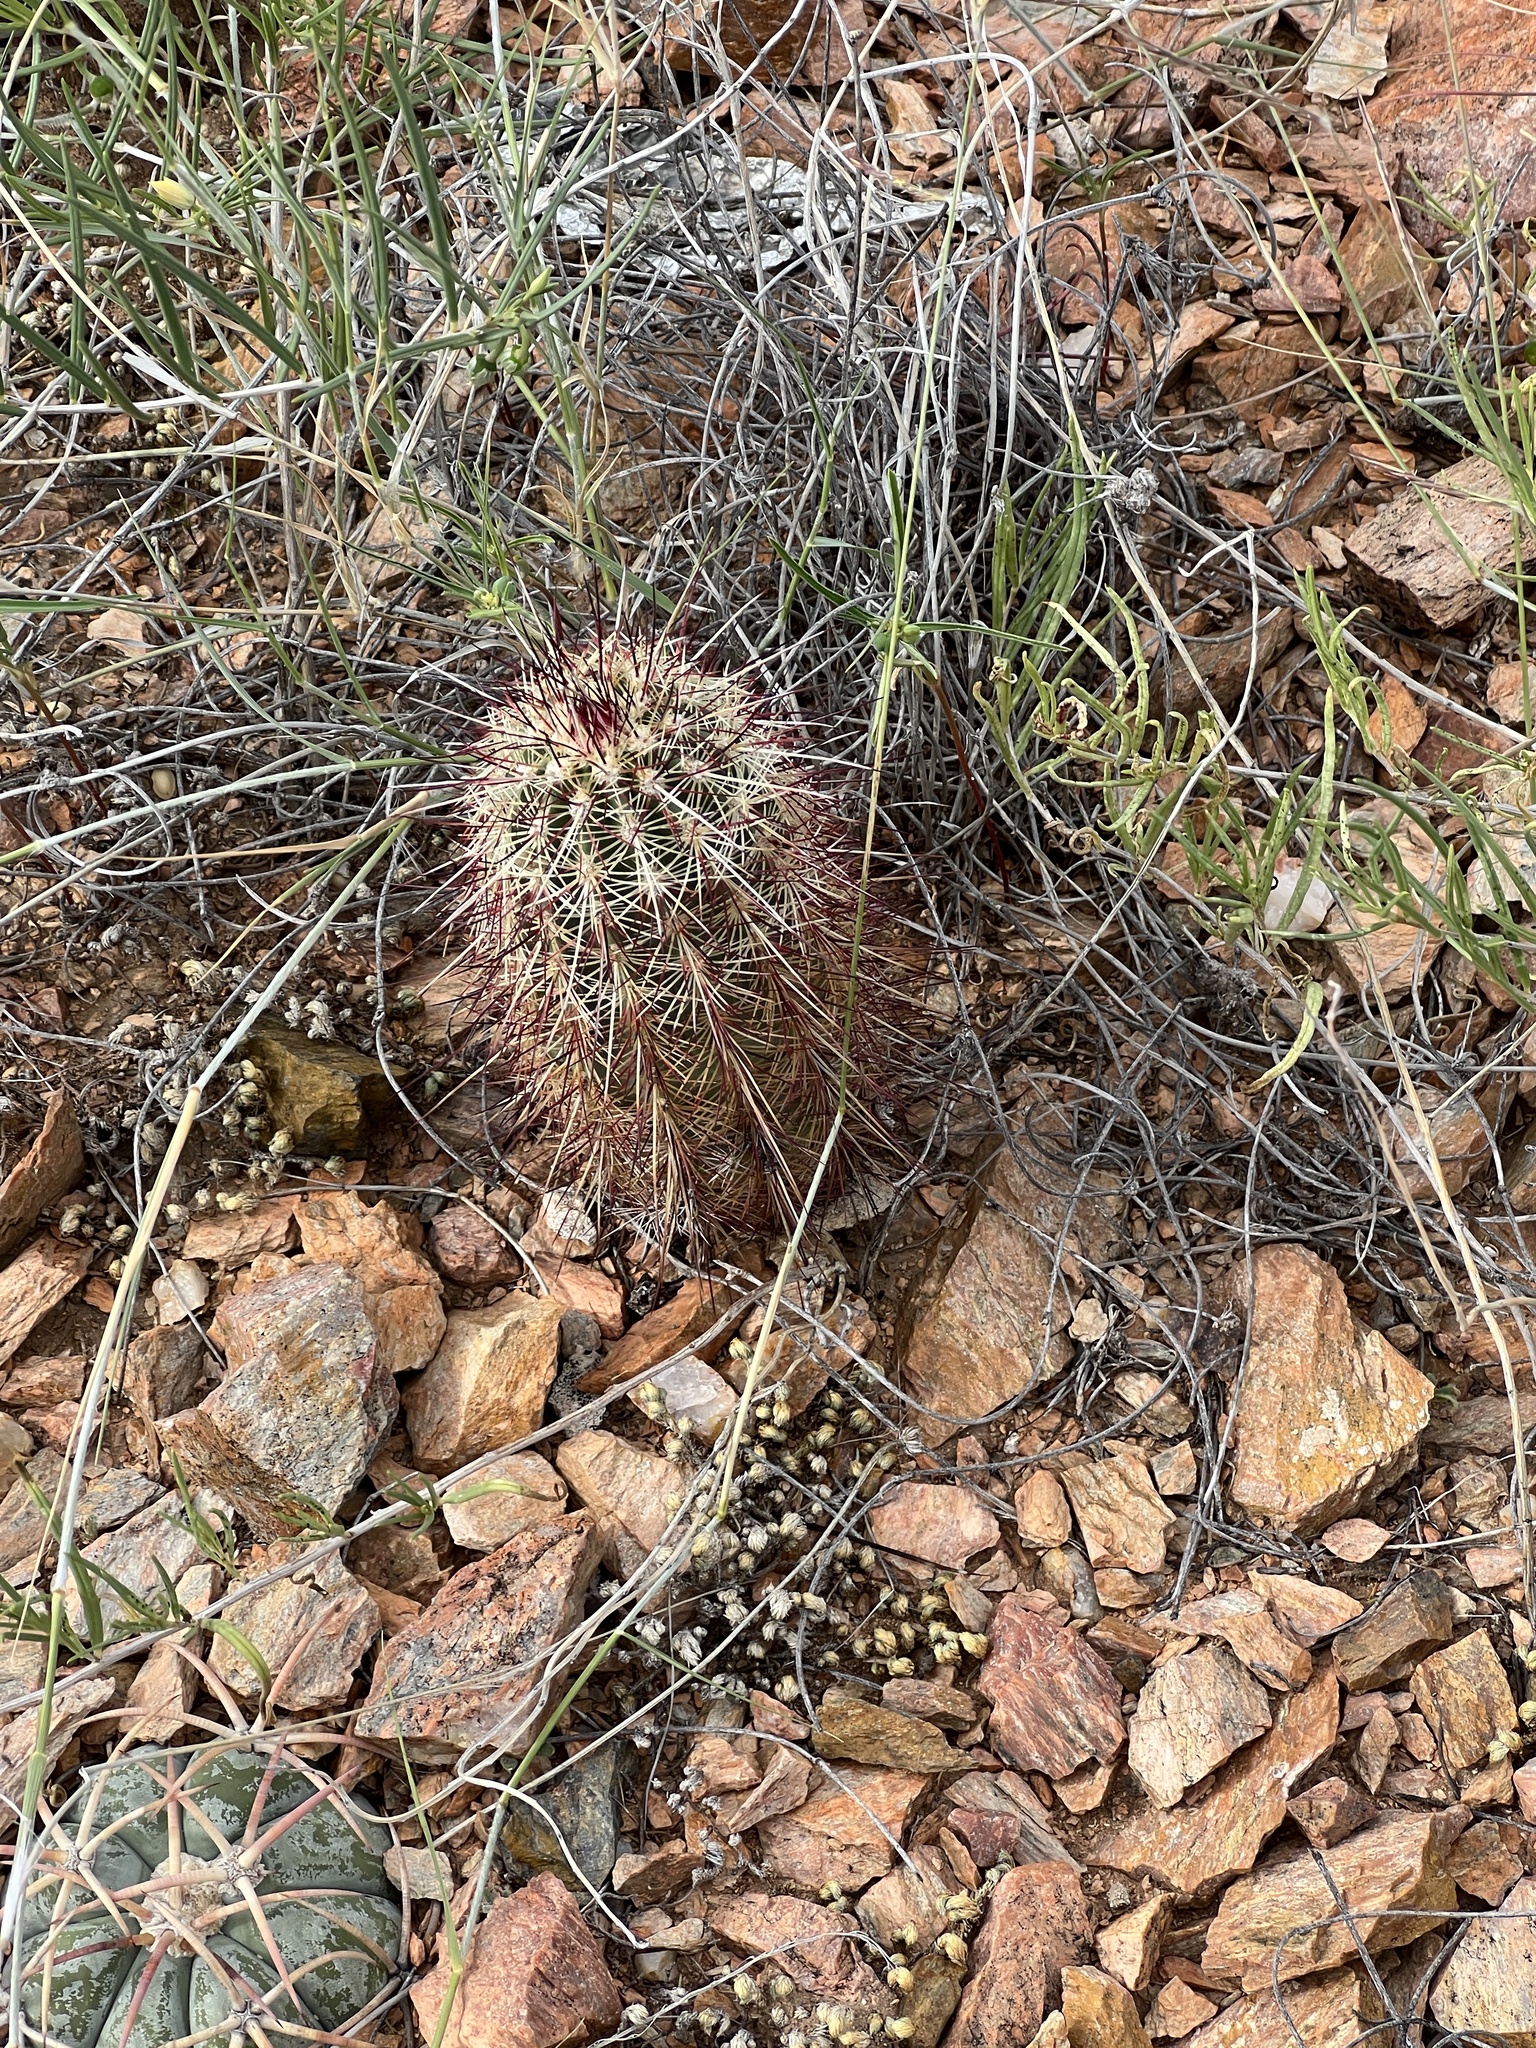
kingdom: Plantae
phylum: Tracheophyta
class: Magnoliopsida
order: Caryophyllales
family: Cactaceae
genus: Echinocereus
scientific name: Echinocereus viridiflorus
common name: Nylon hedgehog cactus
